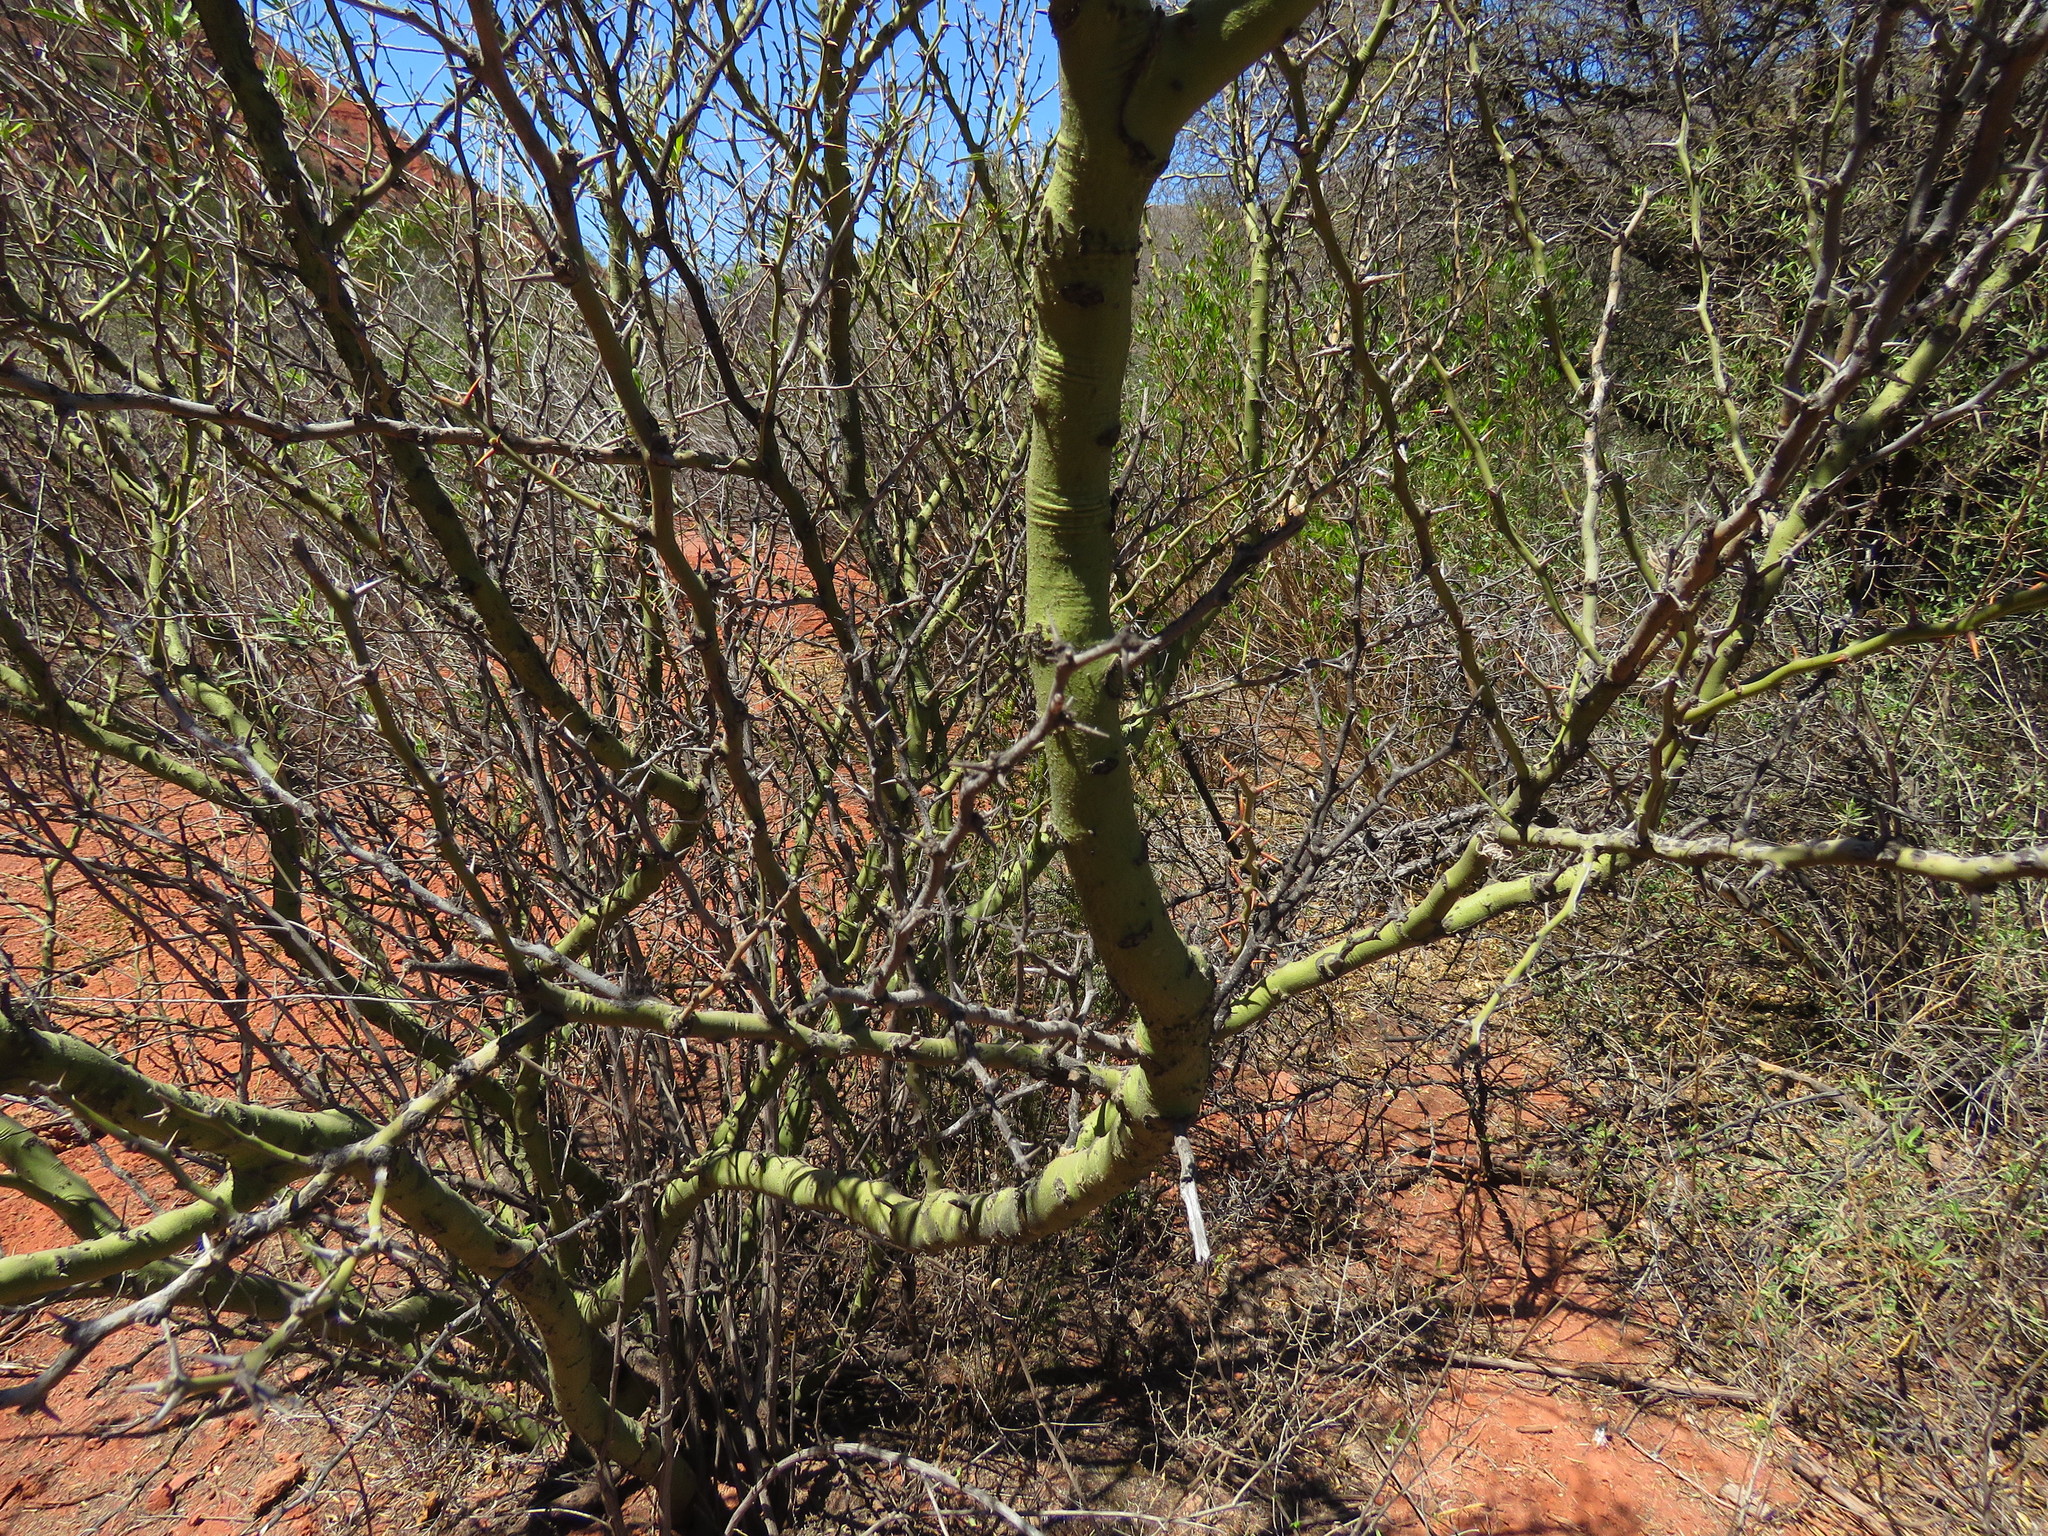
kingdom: Plantae
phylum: Tracheophyta
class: Magnoliopsida
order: Fabales
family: Fabaceae
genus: Parkinsonia
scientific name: Parkinsonia praecox
